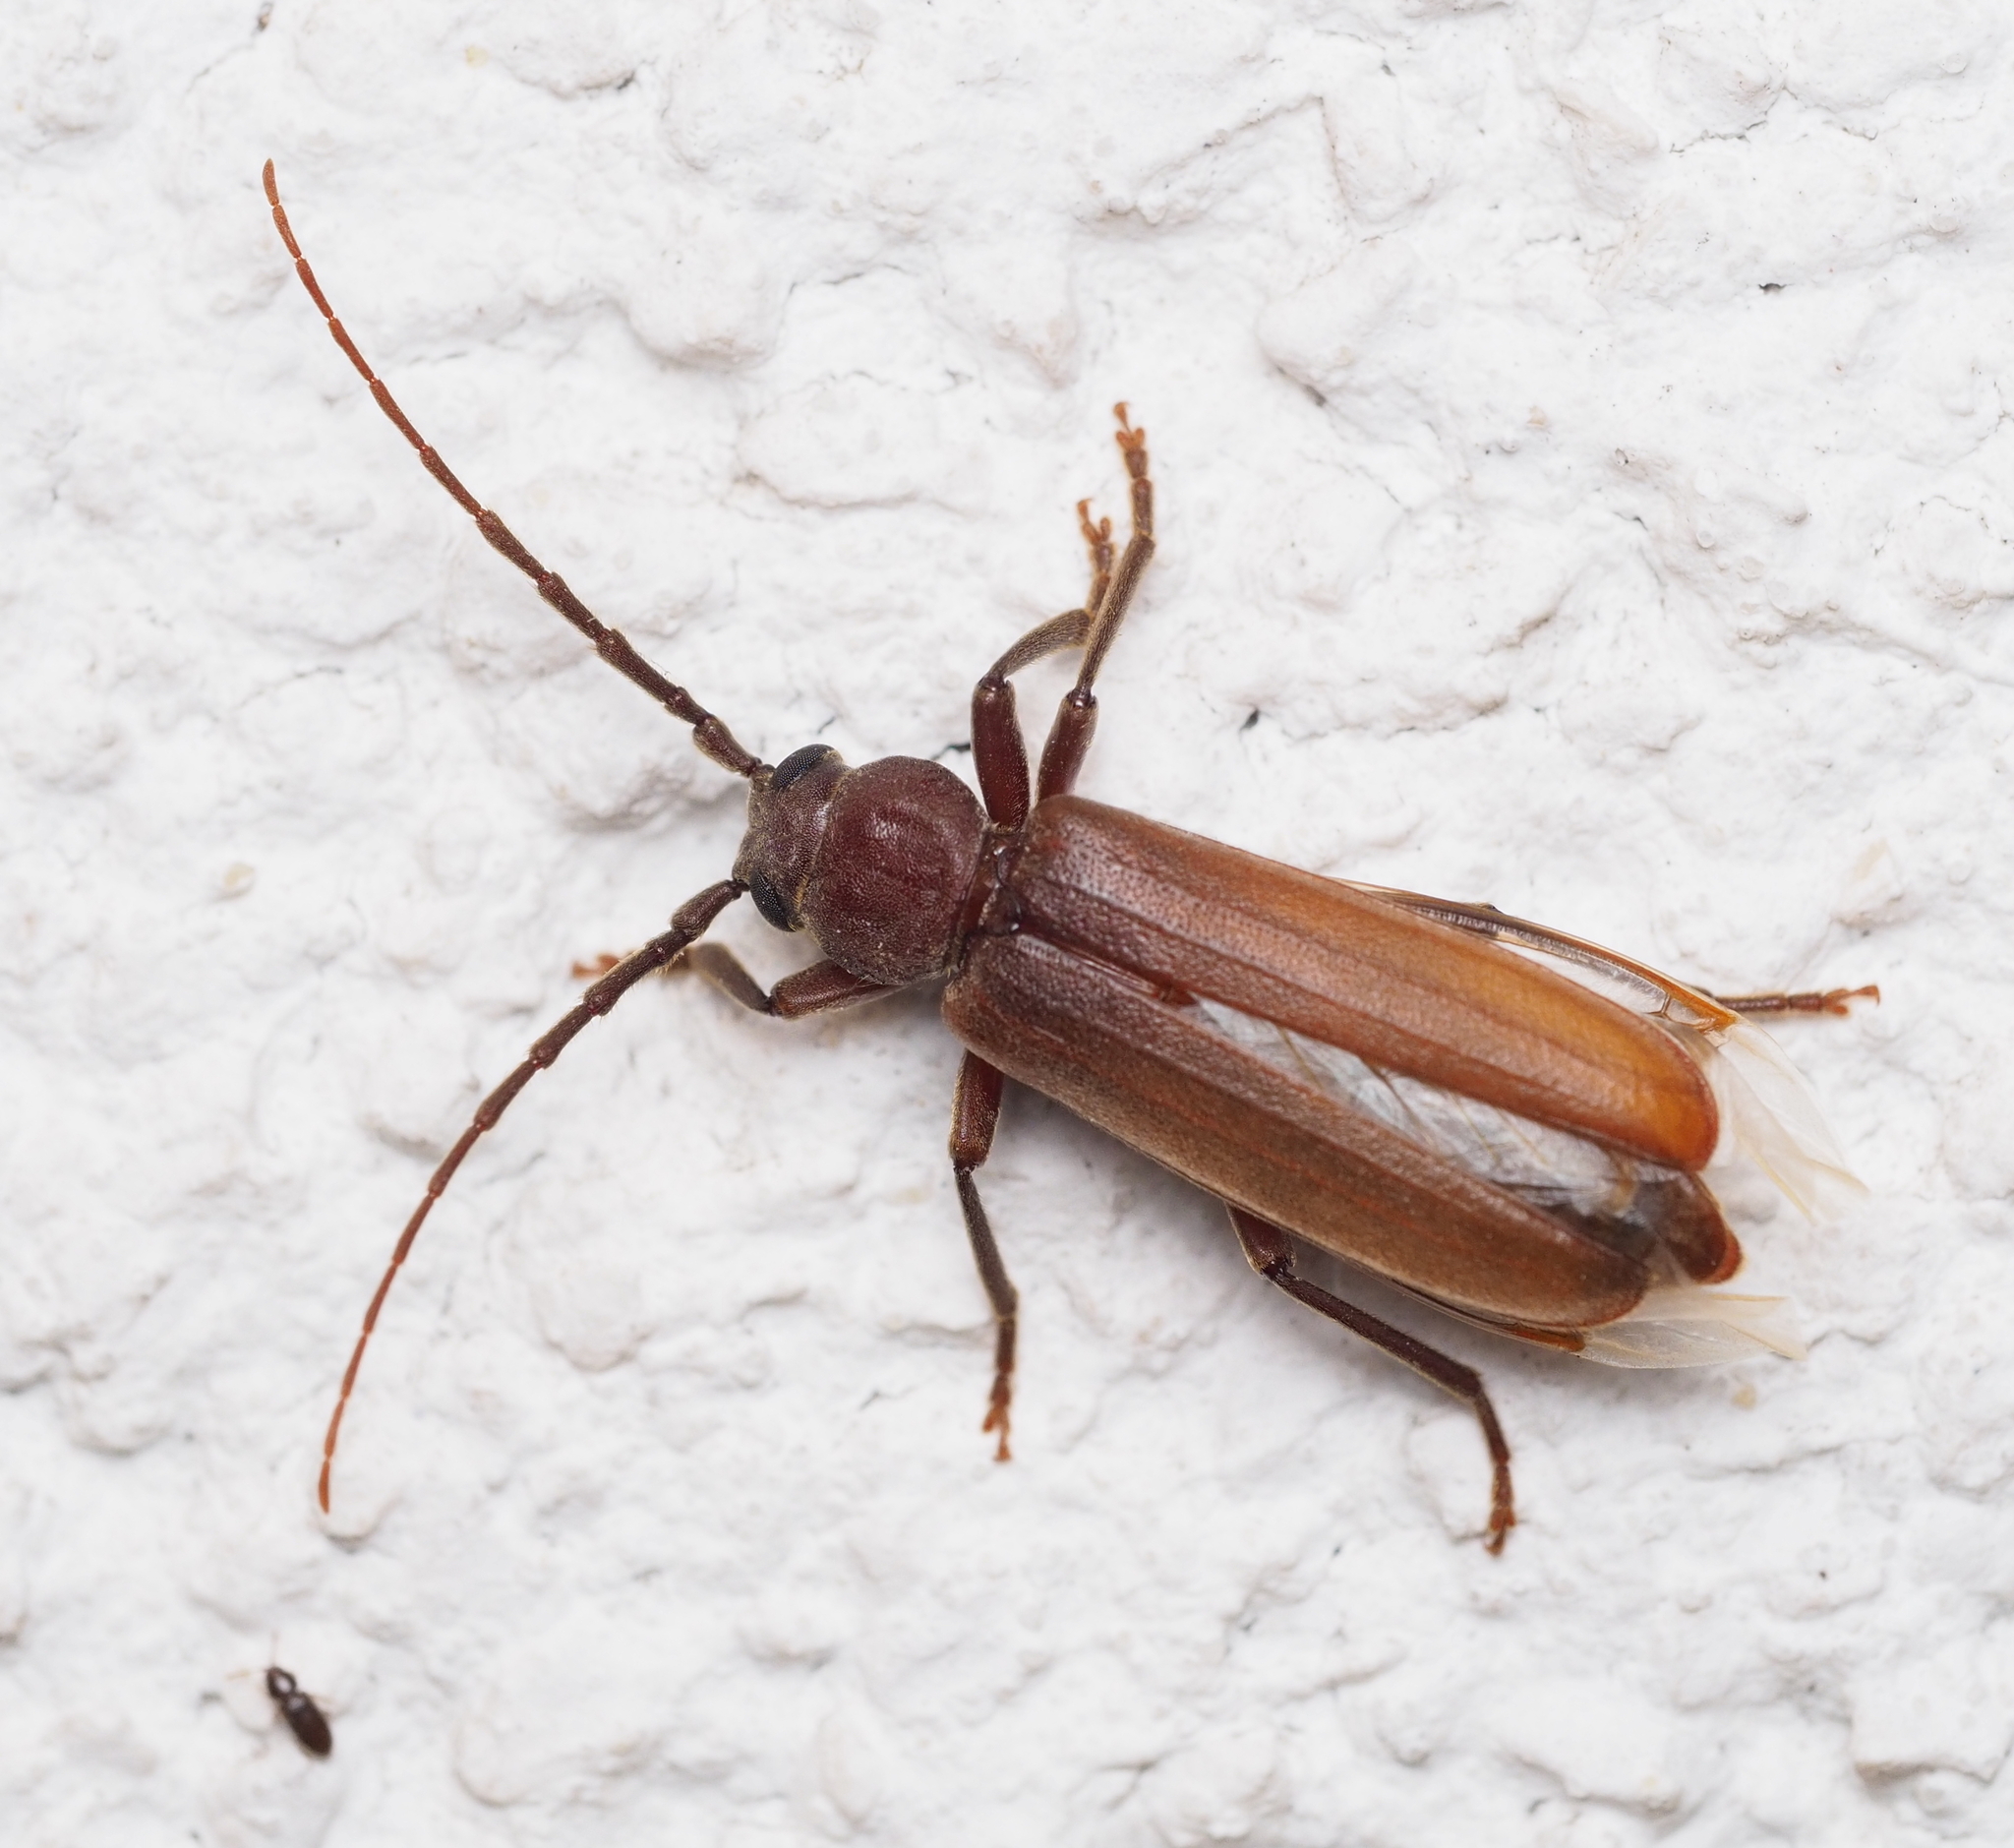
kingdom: Animalia
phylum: Arthropoda
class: Insecta
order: Coleoptera
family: Cerambycidae
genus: Arhopalus
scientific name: Arhopalus rusticus
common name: Rust pine borer
